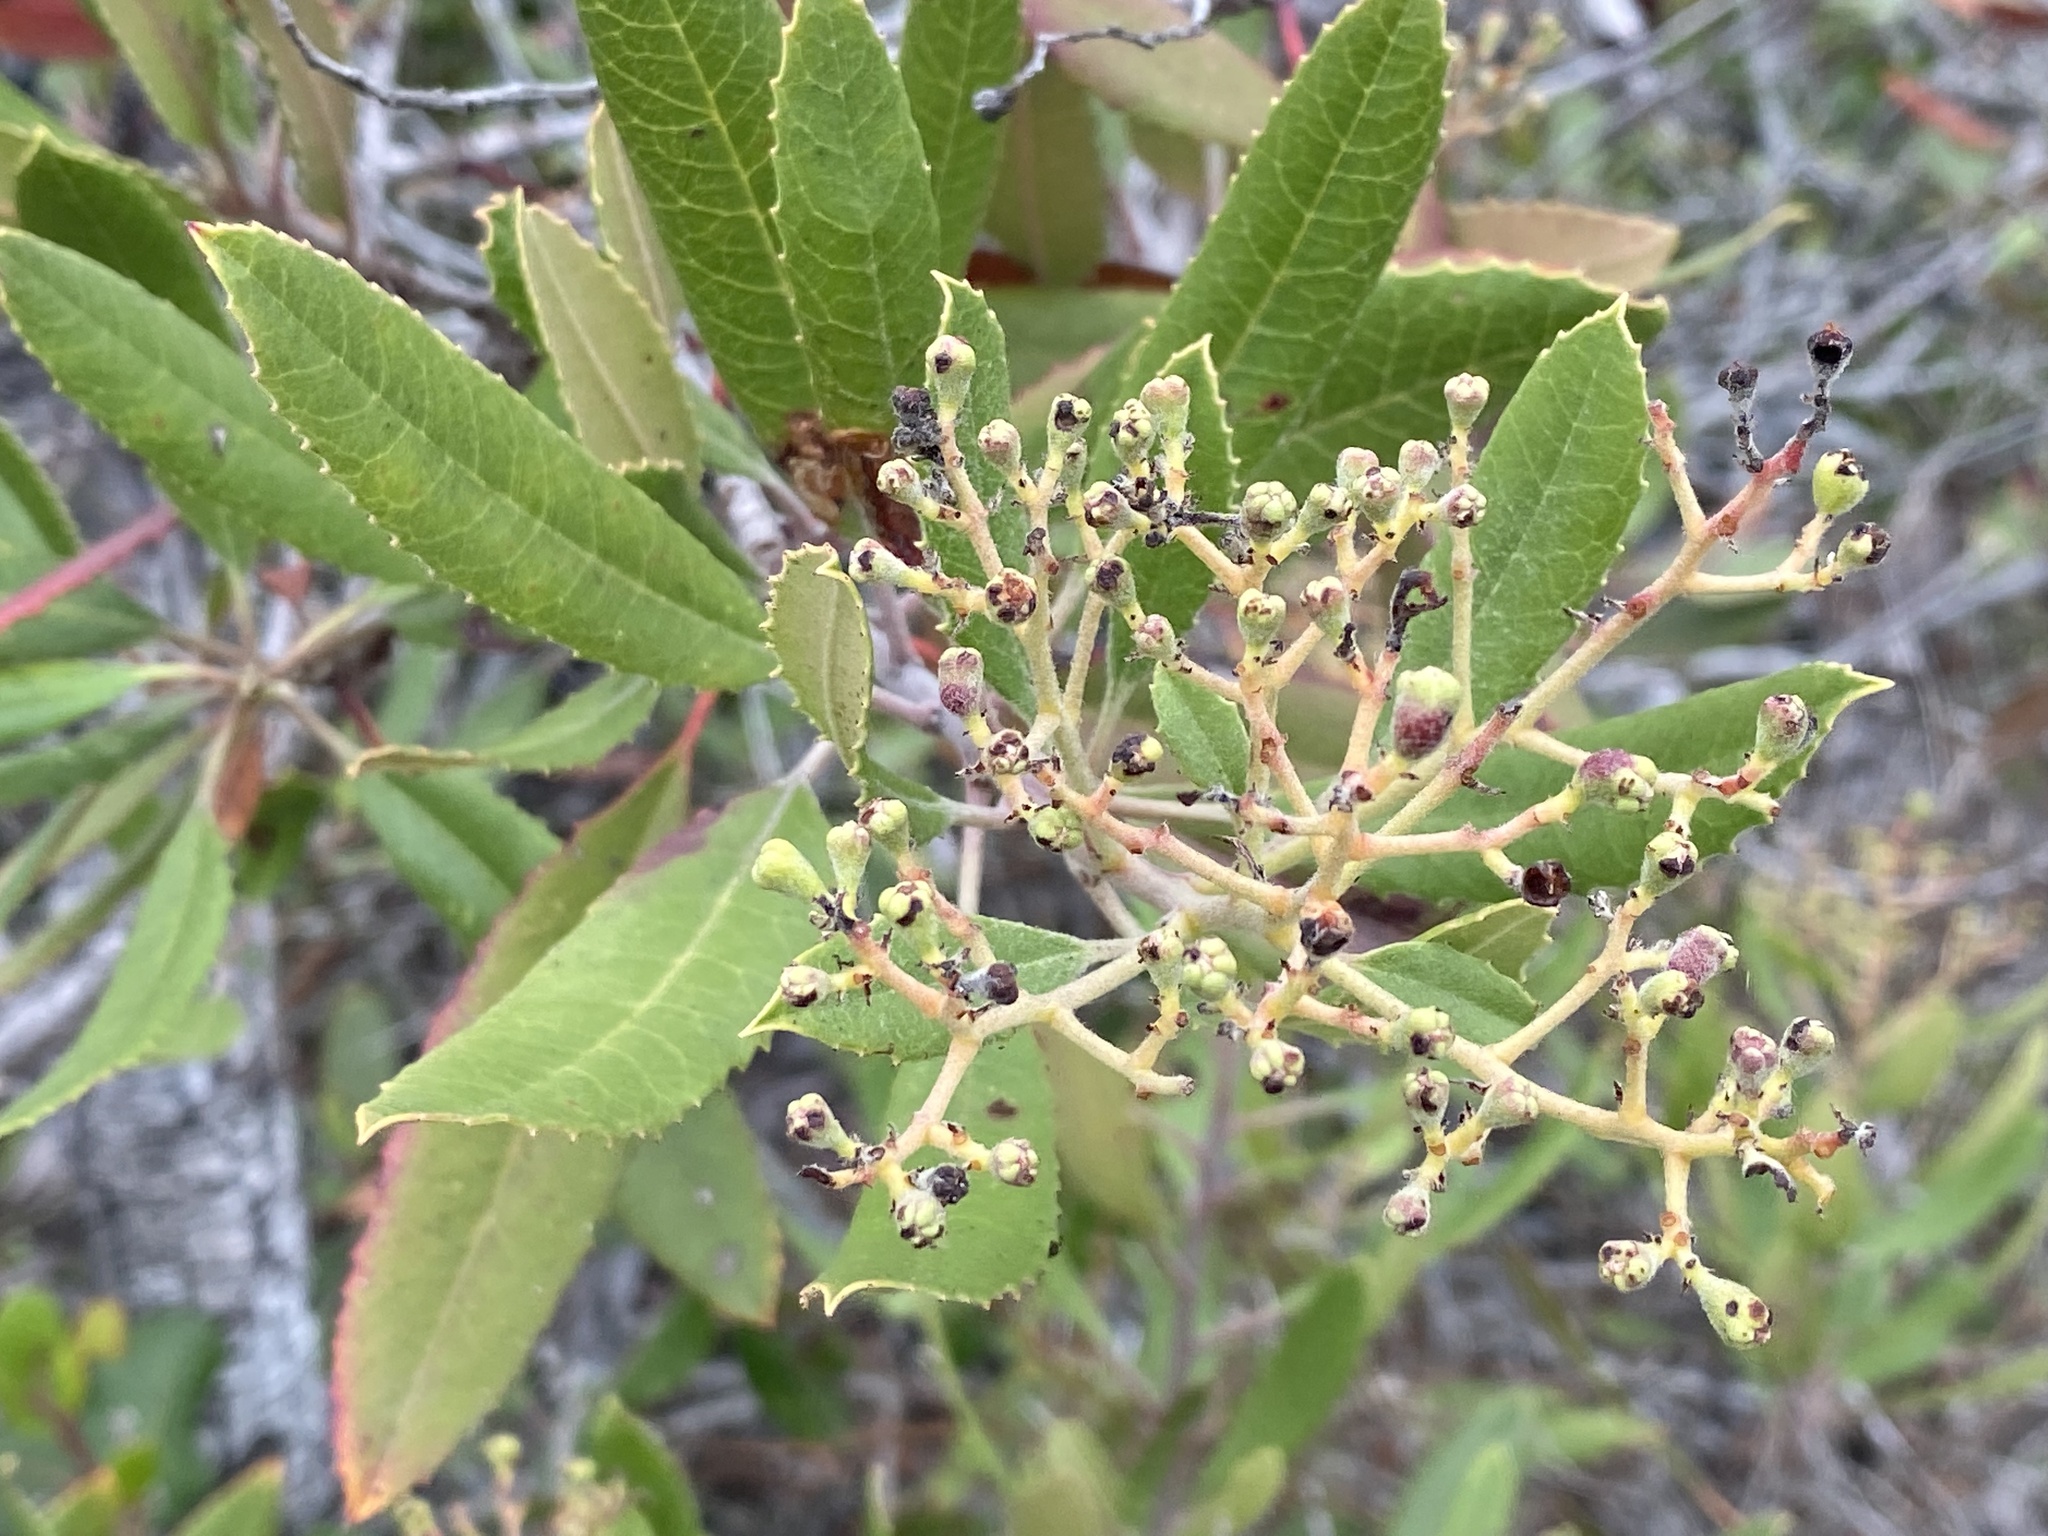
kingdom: Plantae
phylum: Tracheophyta
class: Magnoliopsida
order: Rosales
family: Rosaceae
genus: Heteromeles
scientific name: Heteromeles arbutifolia
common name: California-holly
